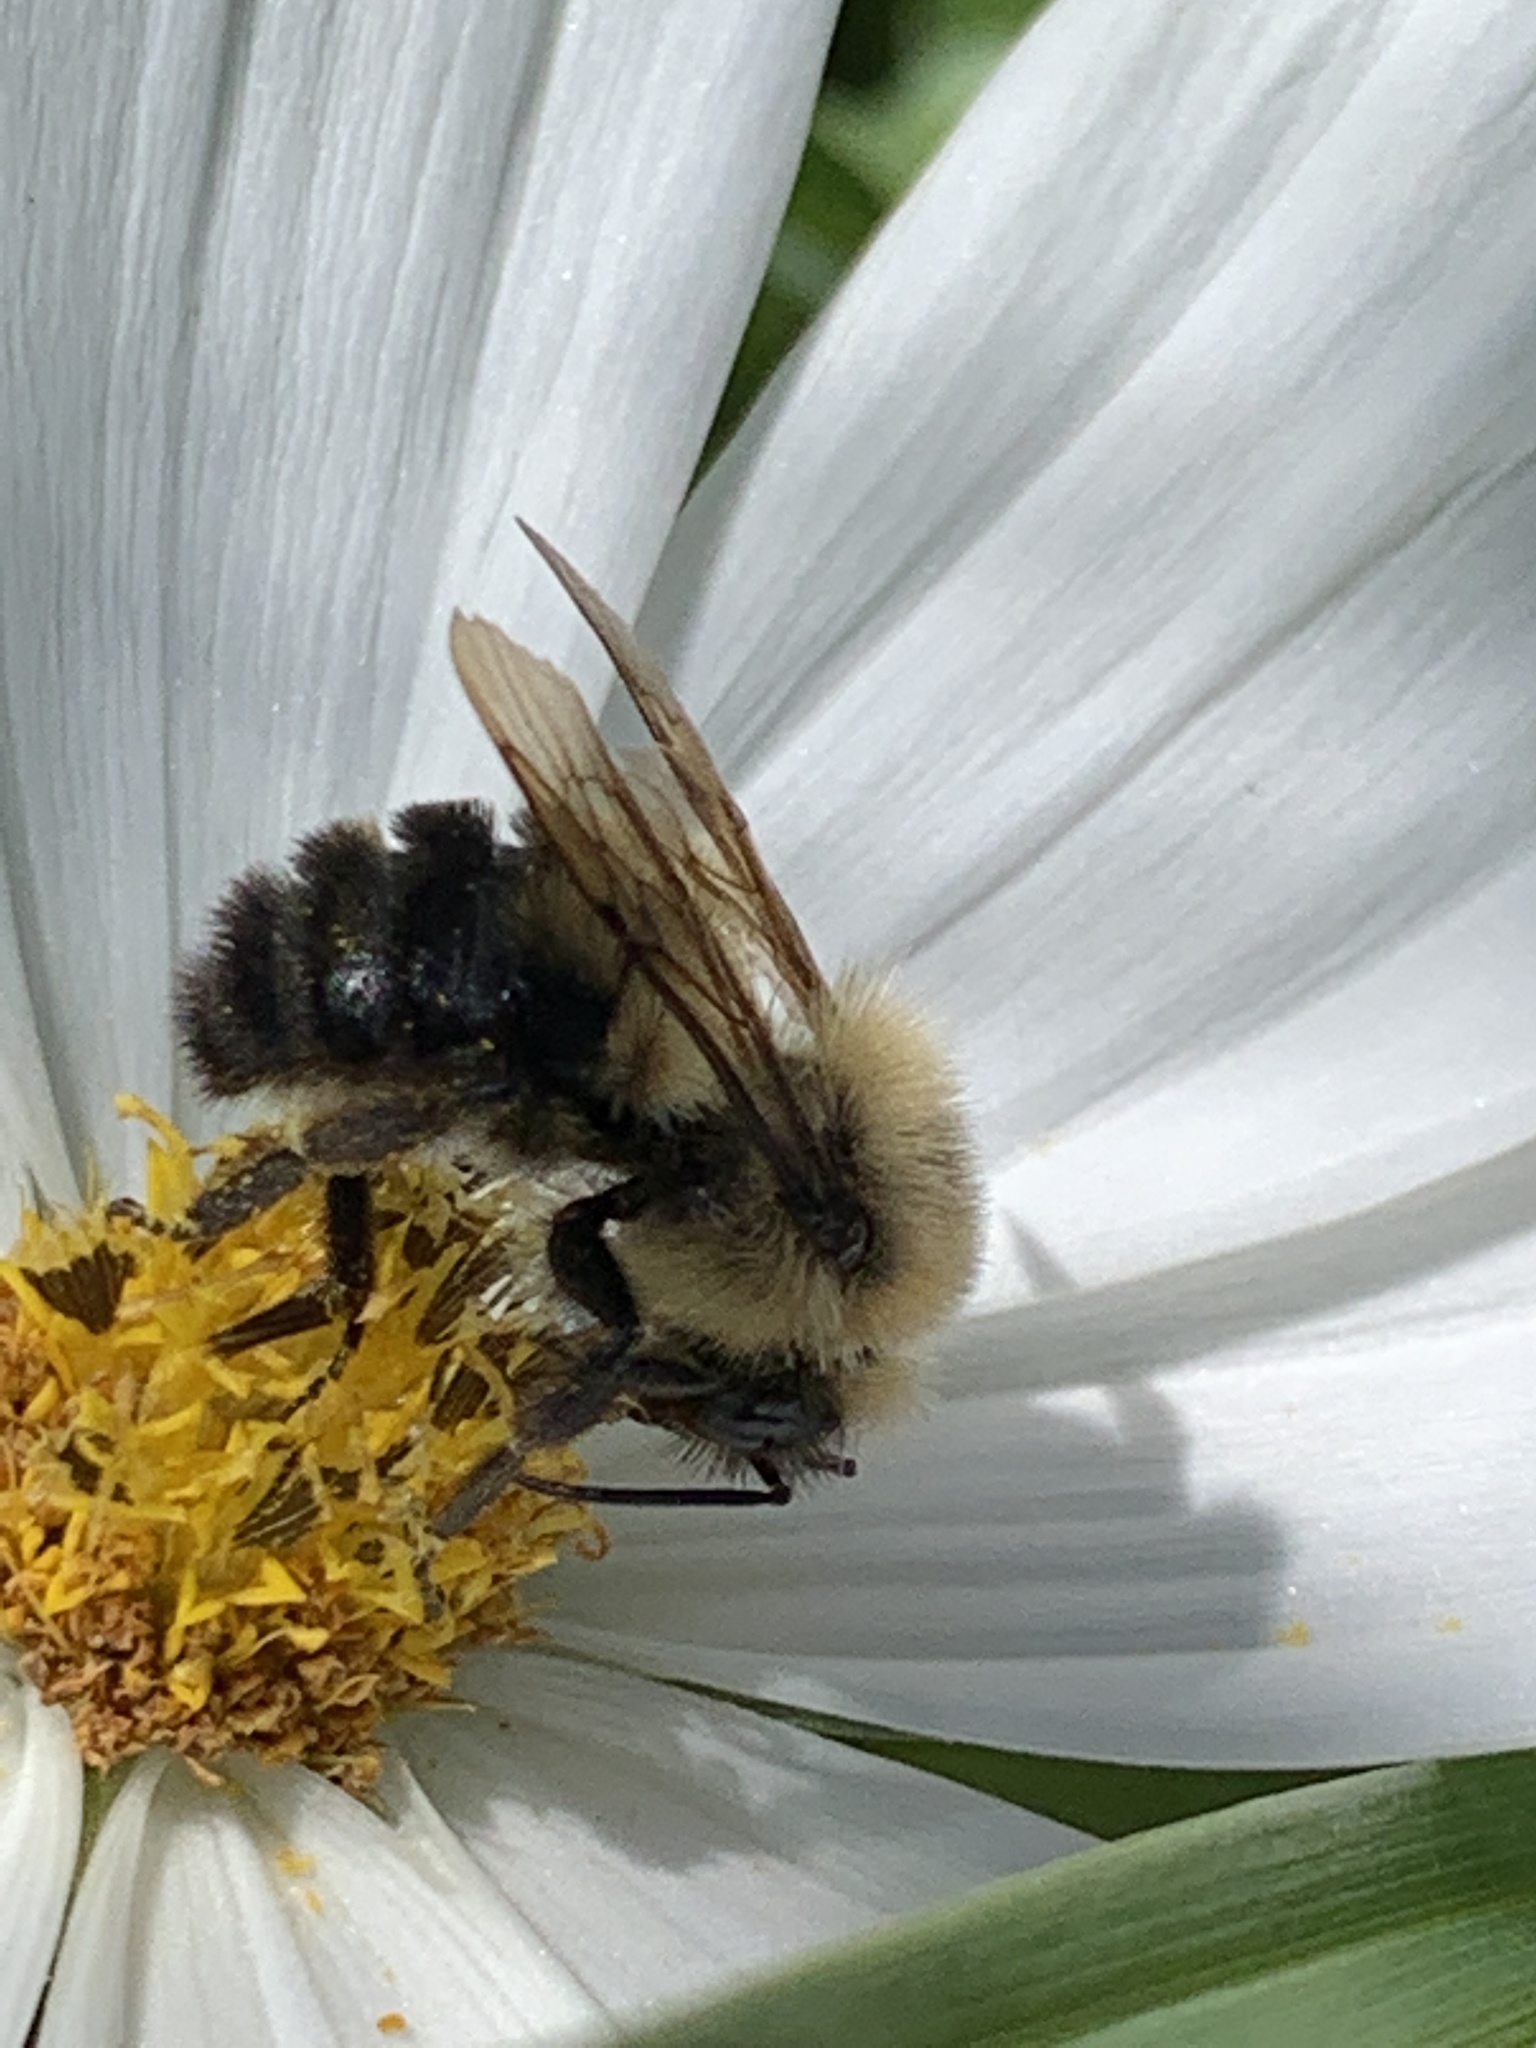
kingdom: Animalia
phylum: Arthropoda
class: Insecta
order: Hymenoptera
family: Apidae
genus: Bombus
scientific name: Bombus bimaculatus
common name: Two-spotted bumble bee
